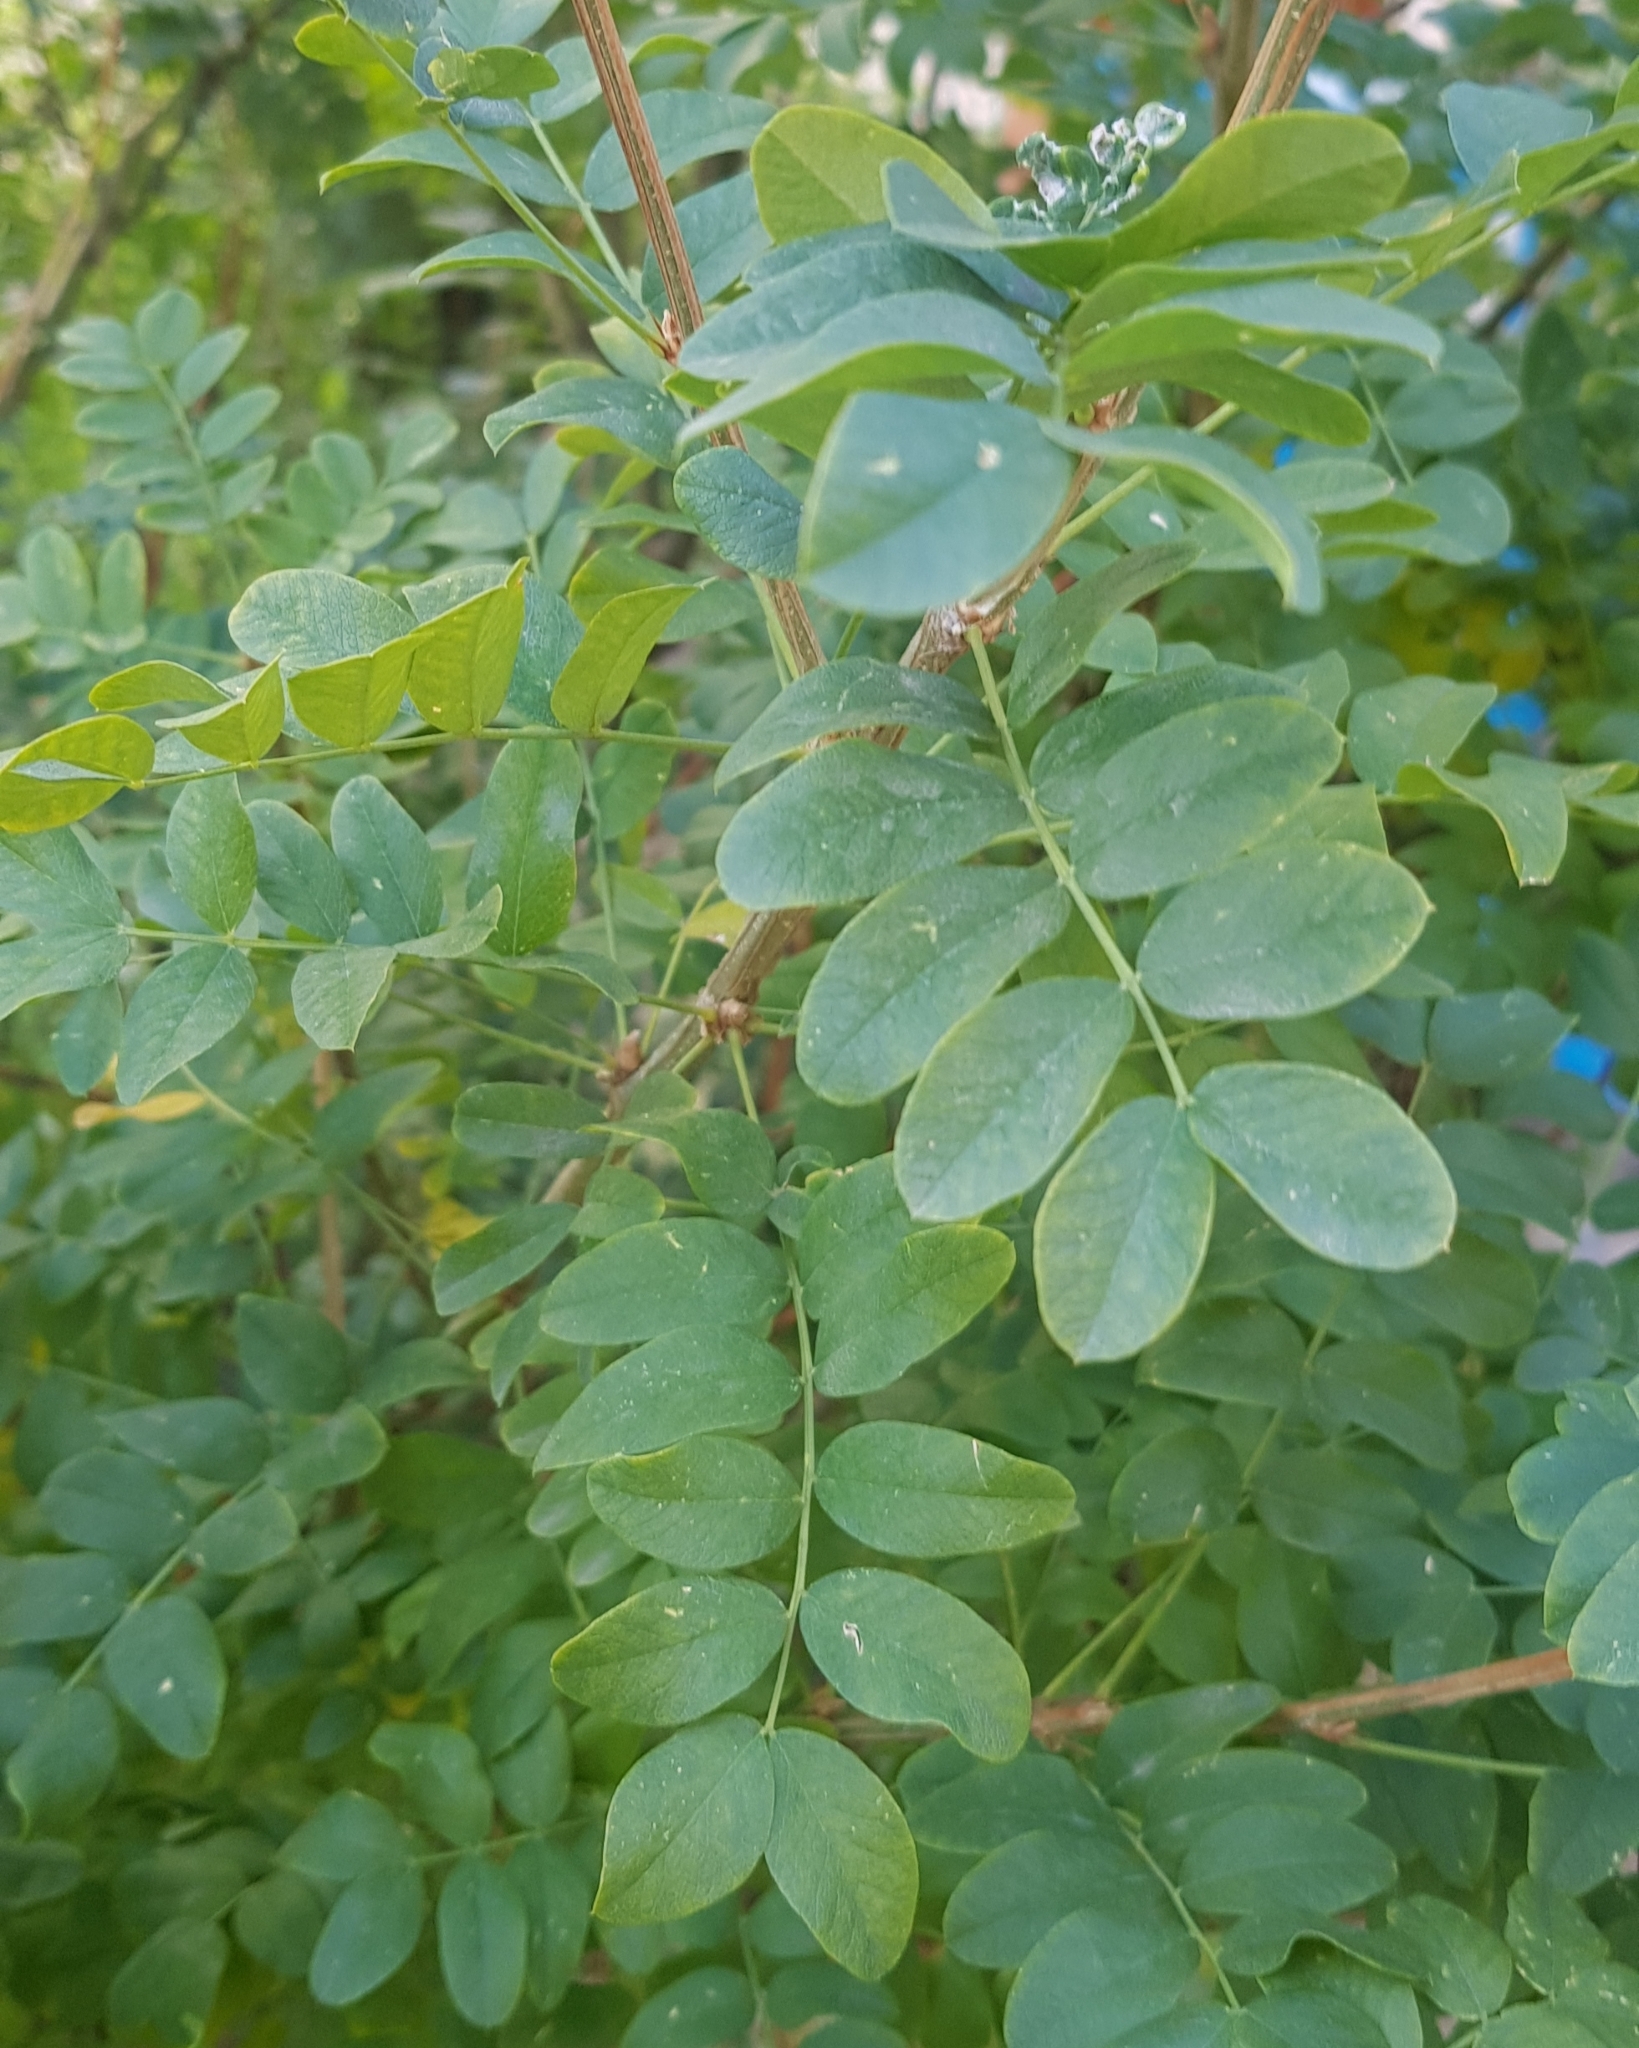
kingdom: Plantae
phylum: Tracheophyta
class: Magnoliopsida
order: Fabales
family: Fabaceae
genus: Caragana
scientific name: Caragana arborescens
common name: Siberian peashrub
